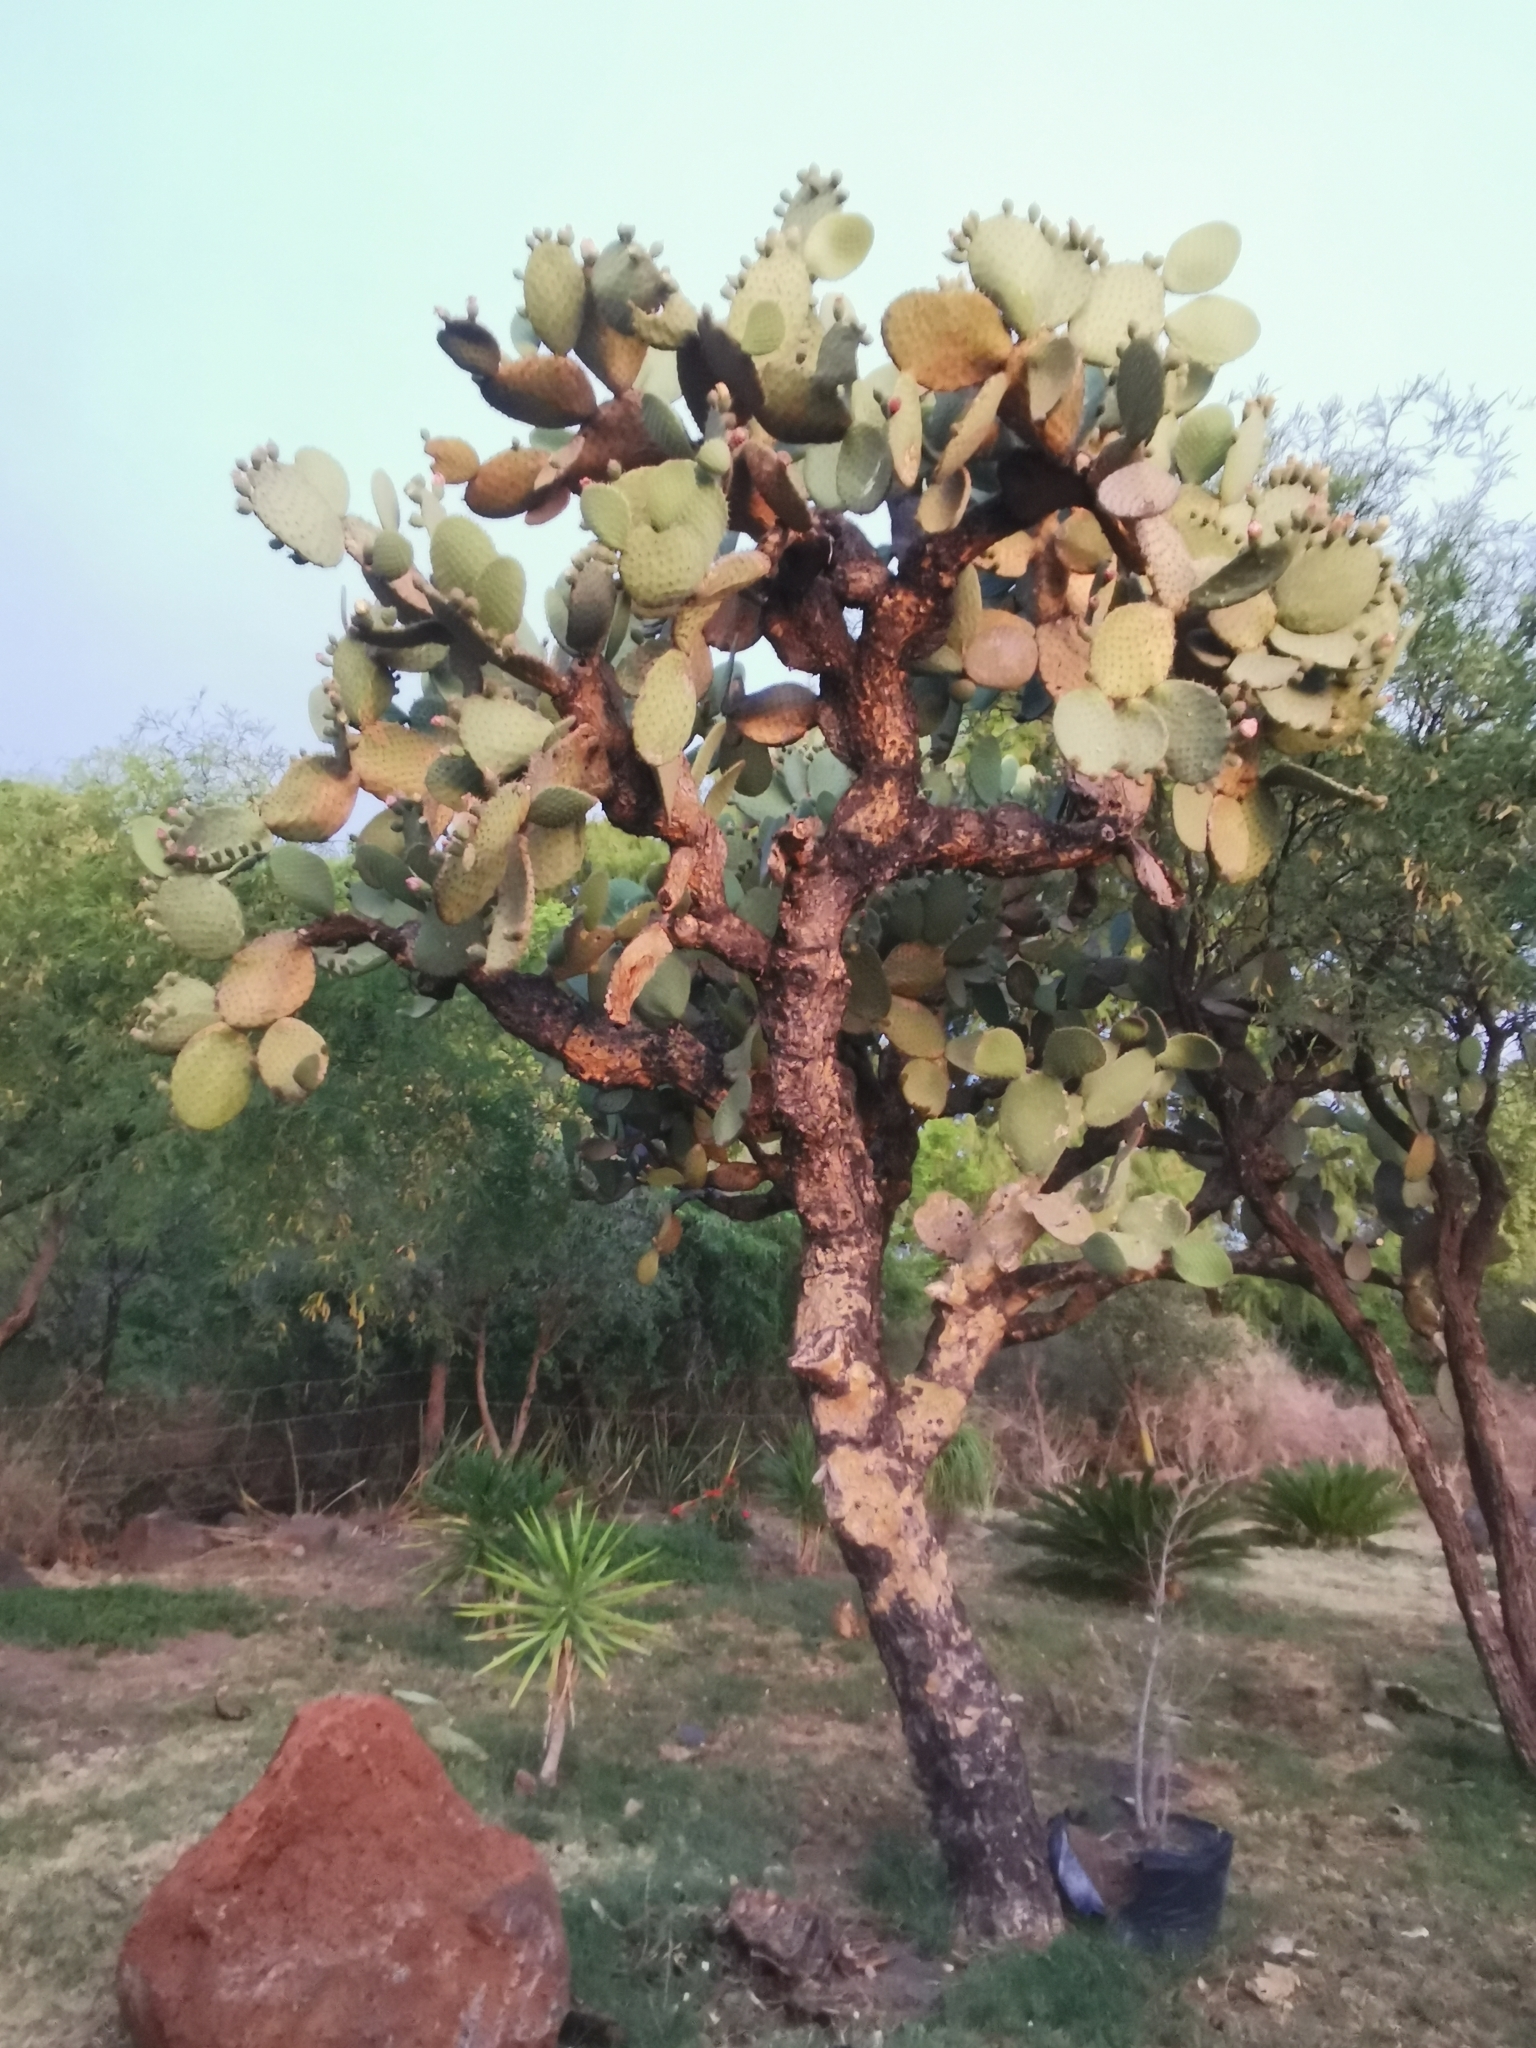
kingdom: Plantae
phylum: Tracheophyta
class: Magnoliopsida
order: Caryophyllales
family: Cactaceae
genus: Opuntia
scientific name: Opuntia leucotricha
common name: Arborescent pricklypear
